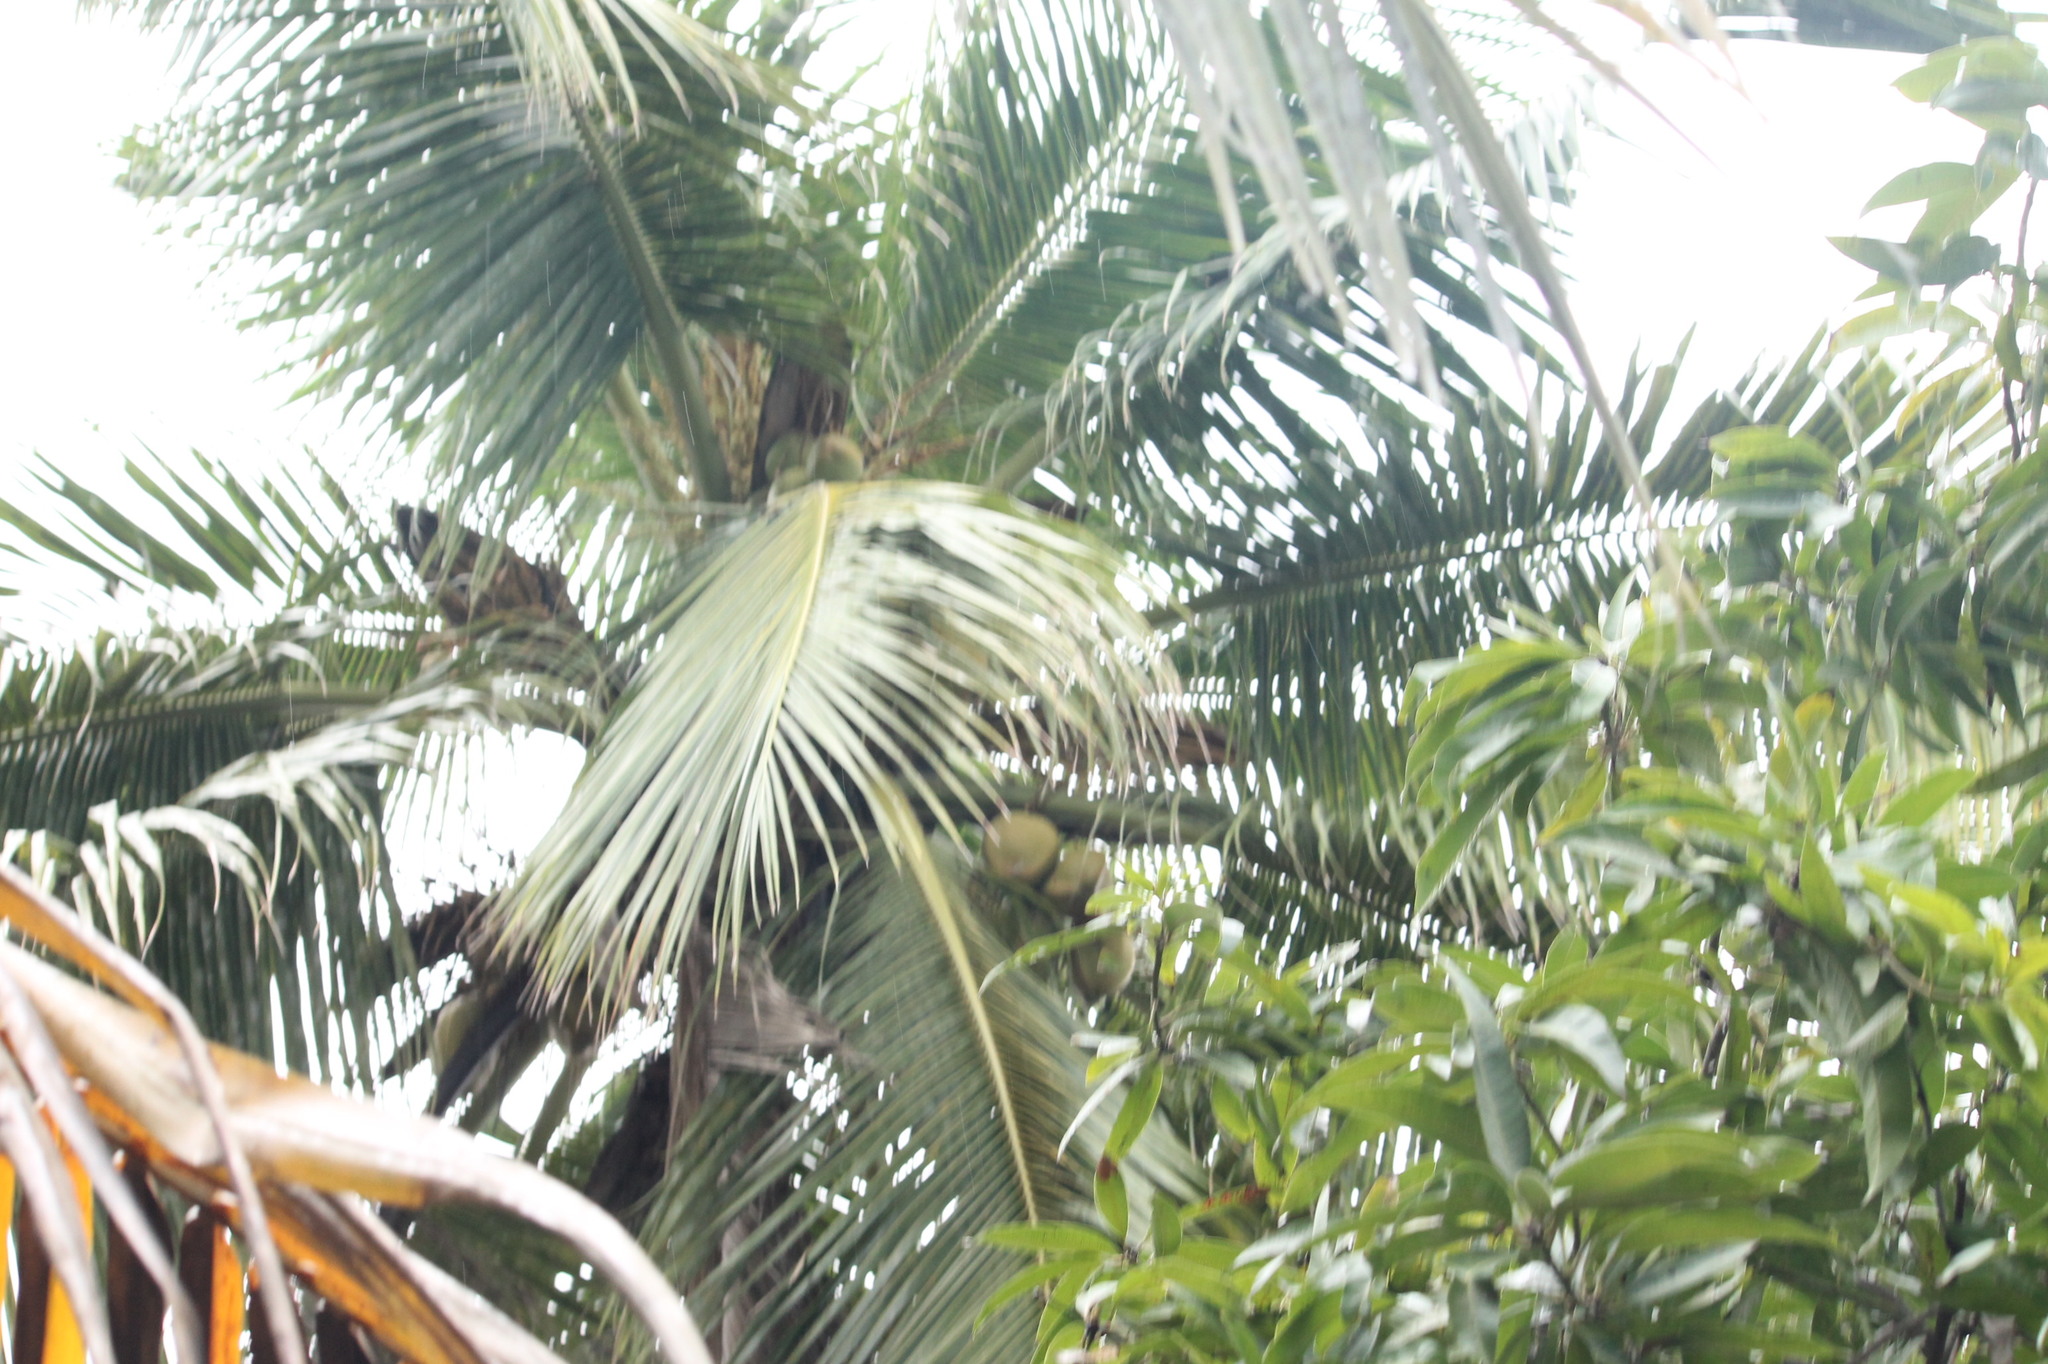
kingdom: Plantae
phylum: Tracheophyta
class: Liliopsida
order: Arecales
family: Arecaceae
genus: Cocos
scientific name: Cocos nucifera
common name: Coconut palm
